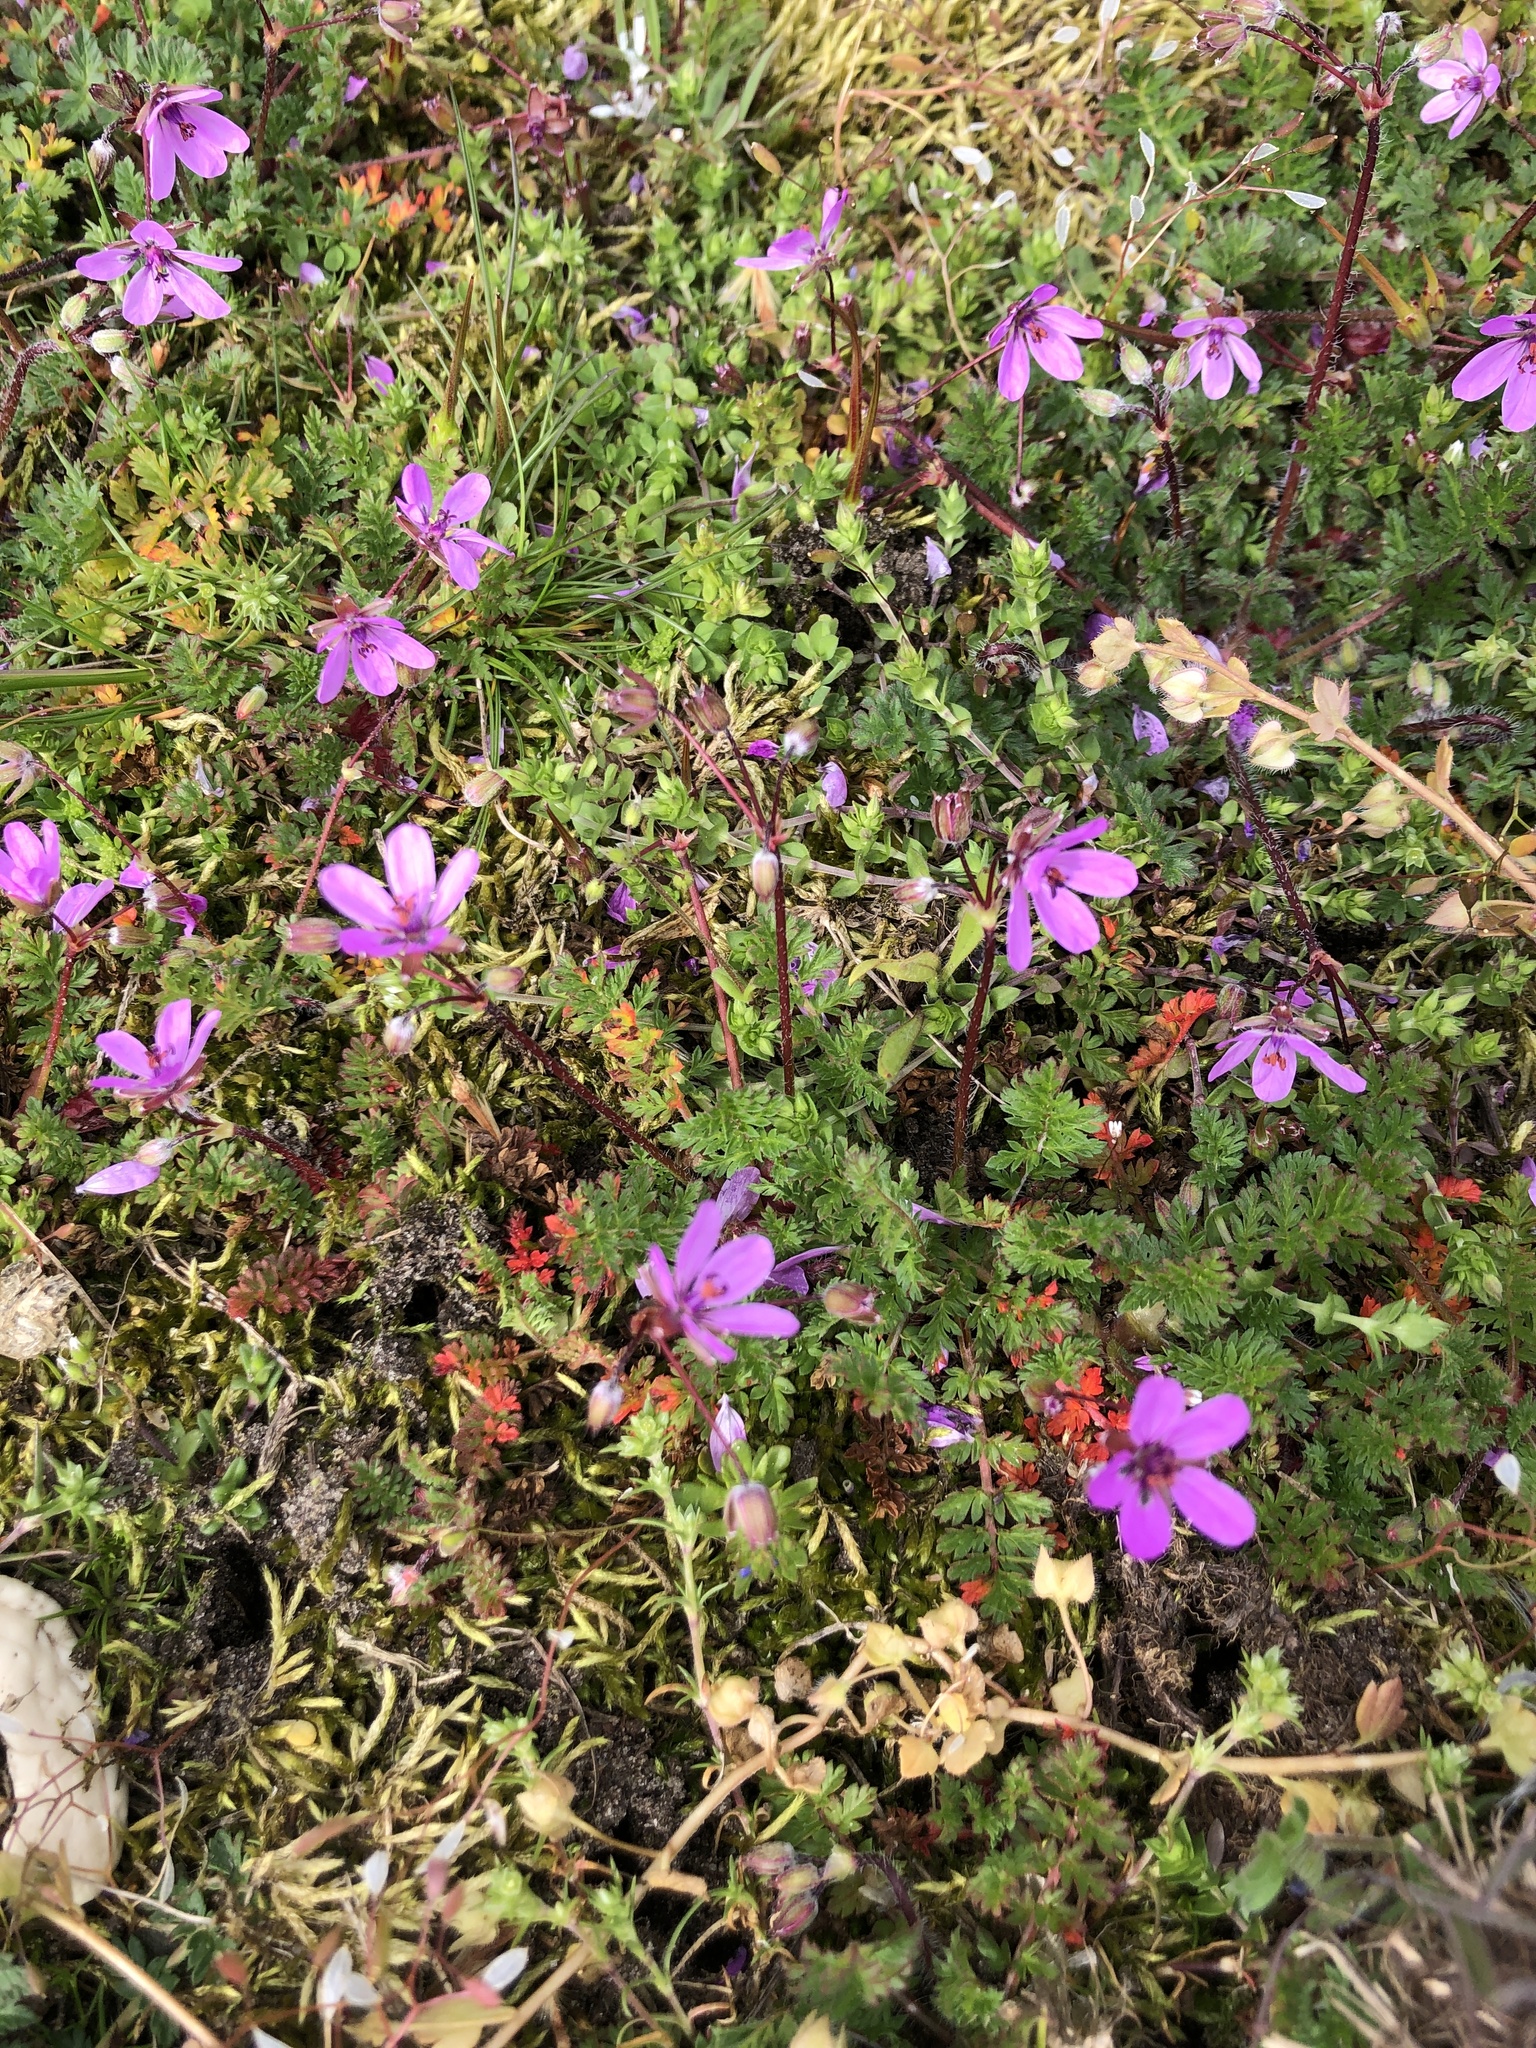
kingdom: Plantae
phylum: Tracheophyta
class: Magnoliopsida
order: Geraniales
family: Geraniaceae
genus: Erodium
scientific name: Erodium cicutarium
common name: Common stork's-bill
